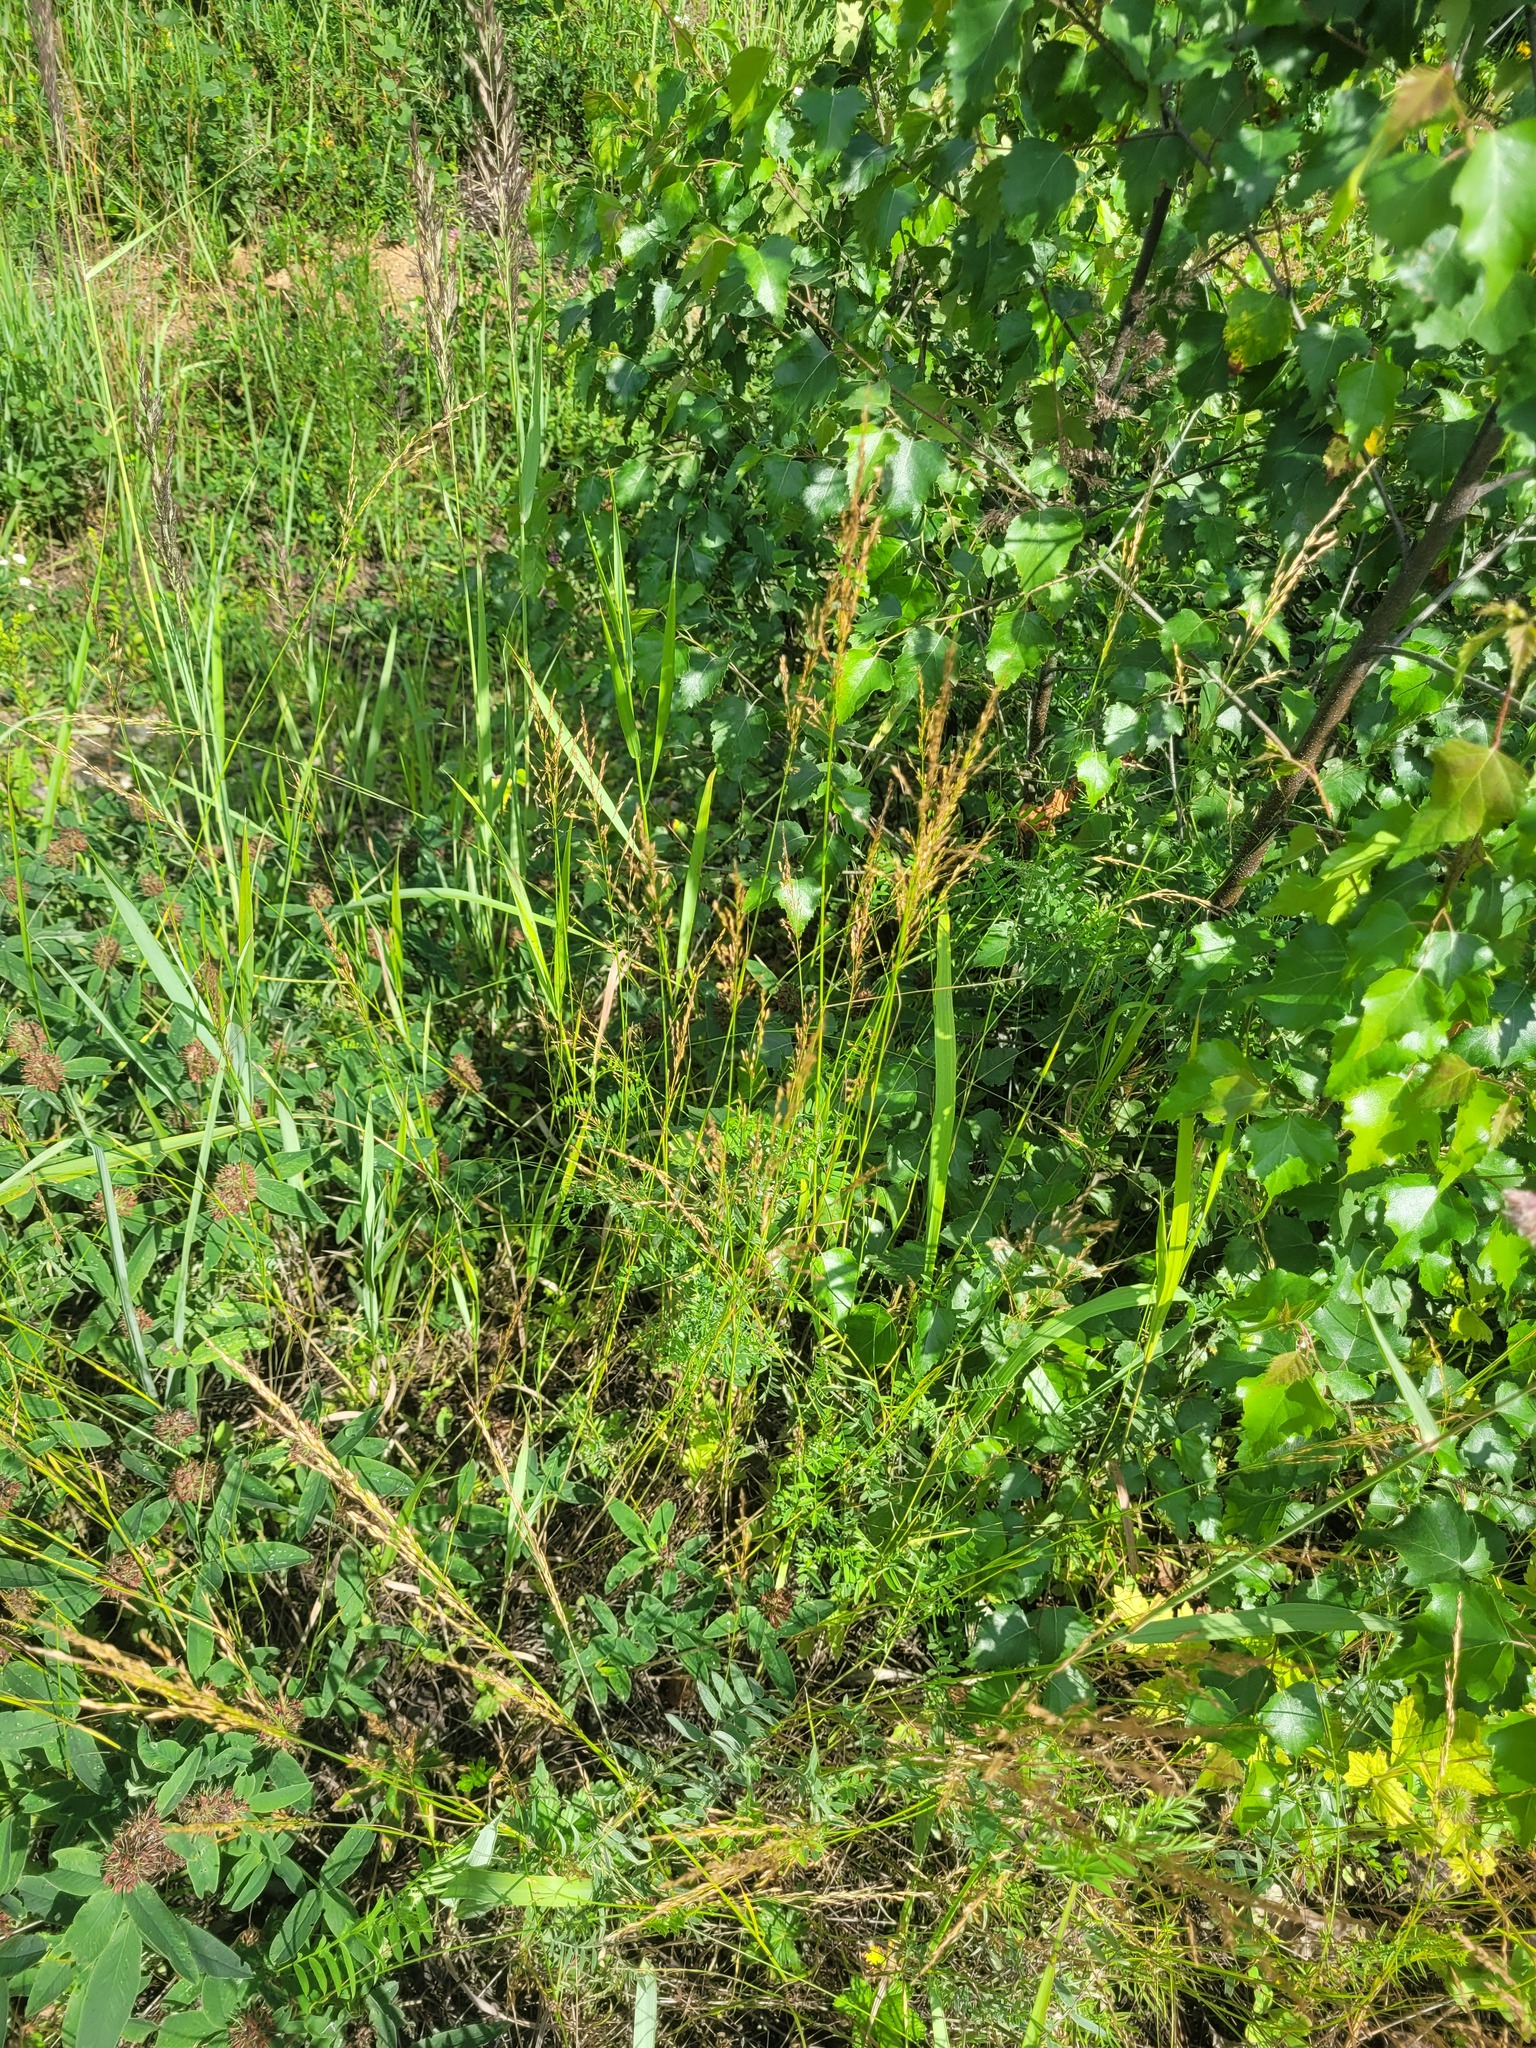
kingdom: Plantae
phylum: Tracheophyta
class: Liliopsida
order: Poales
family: Poaceae
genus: Poa
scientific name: Poa palustris
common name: Swamp meadow-grass
